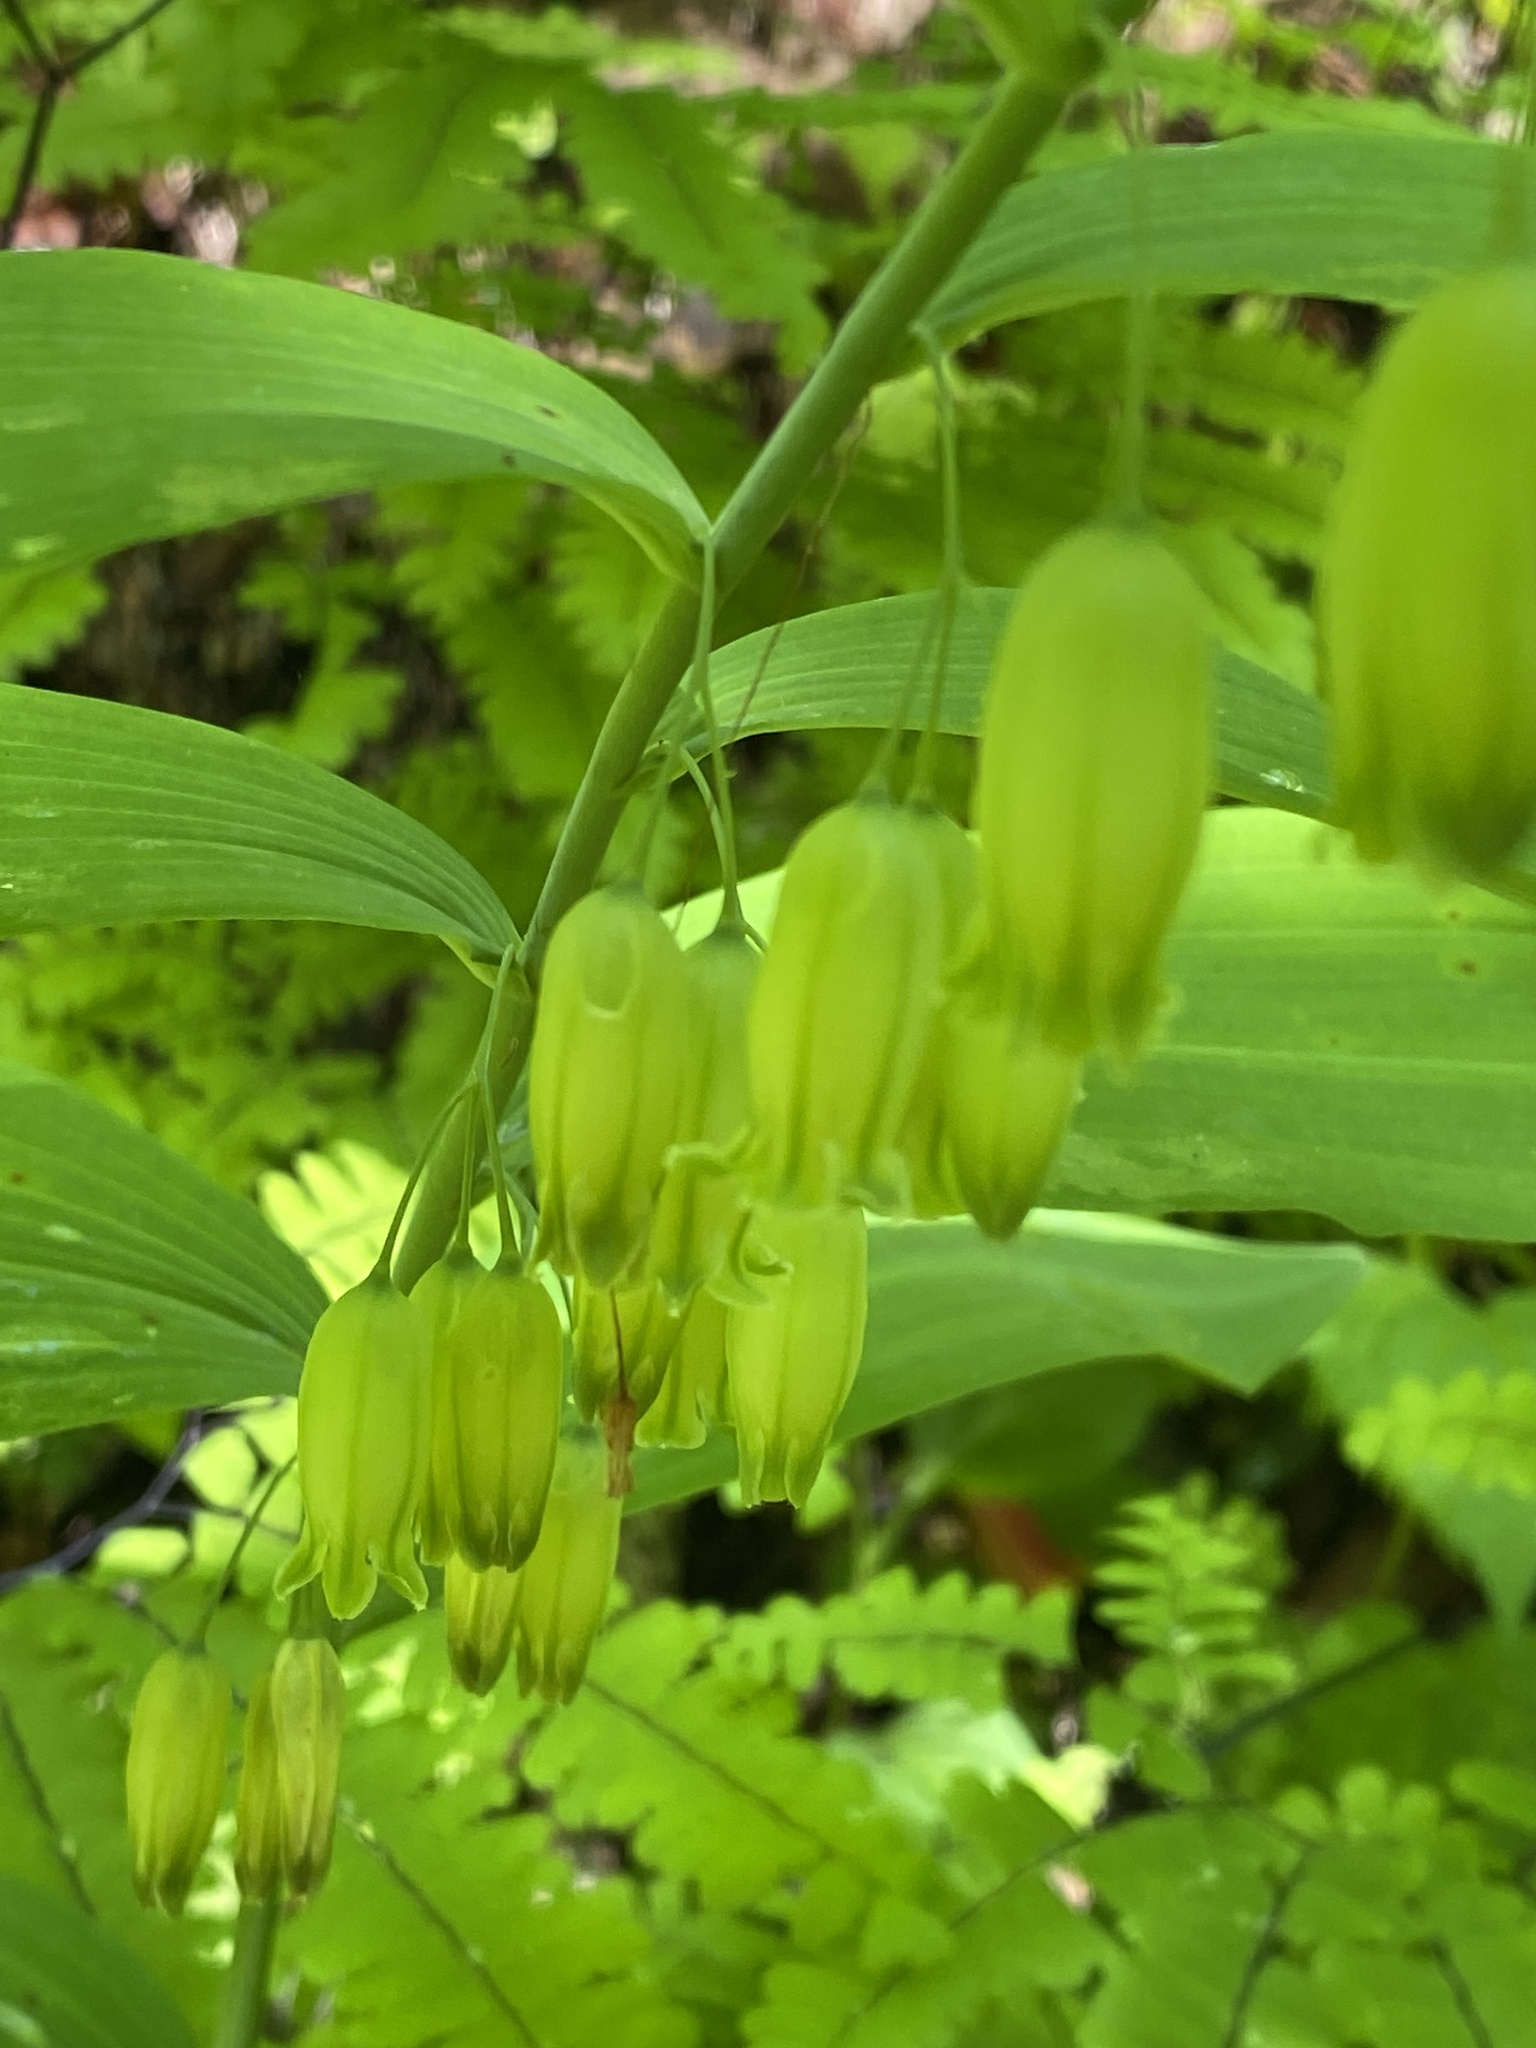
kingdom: Plantae
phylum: Tracheophyta
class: Liliopsida
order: Asparagales
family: Asparagaceae
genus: Polygonatum
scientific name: Polygonatum biflorum
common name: American solomon's-seal
